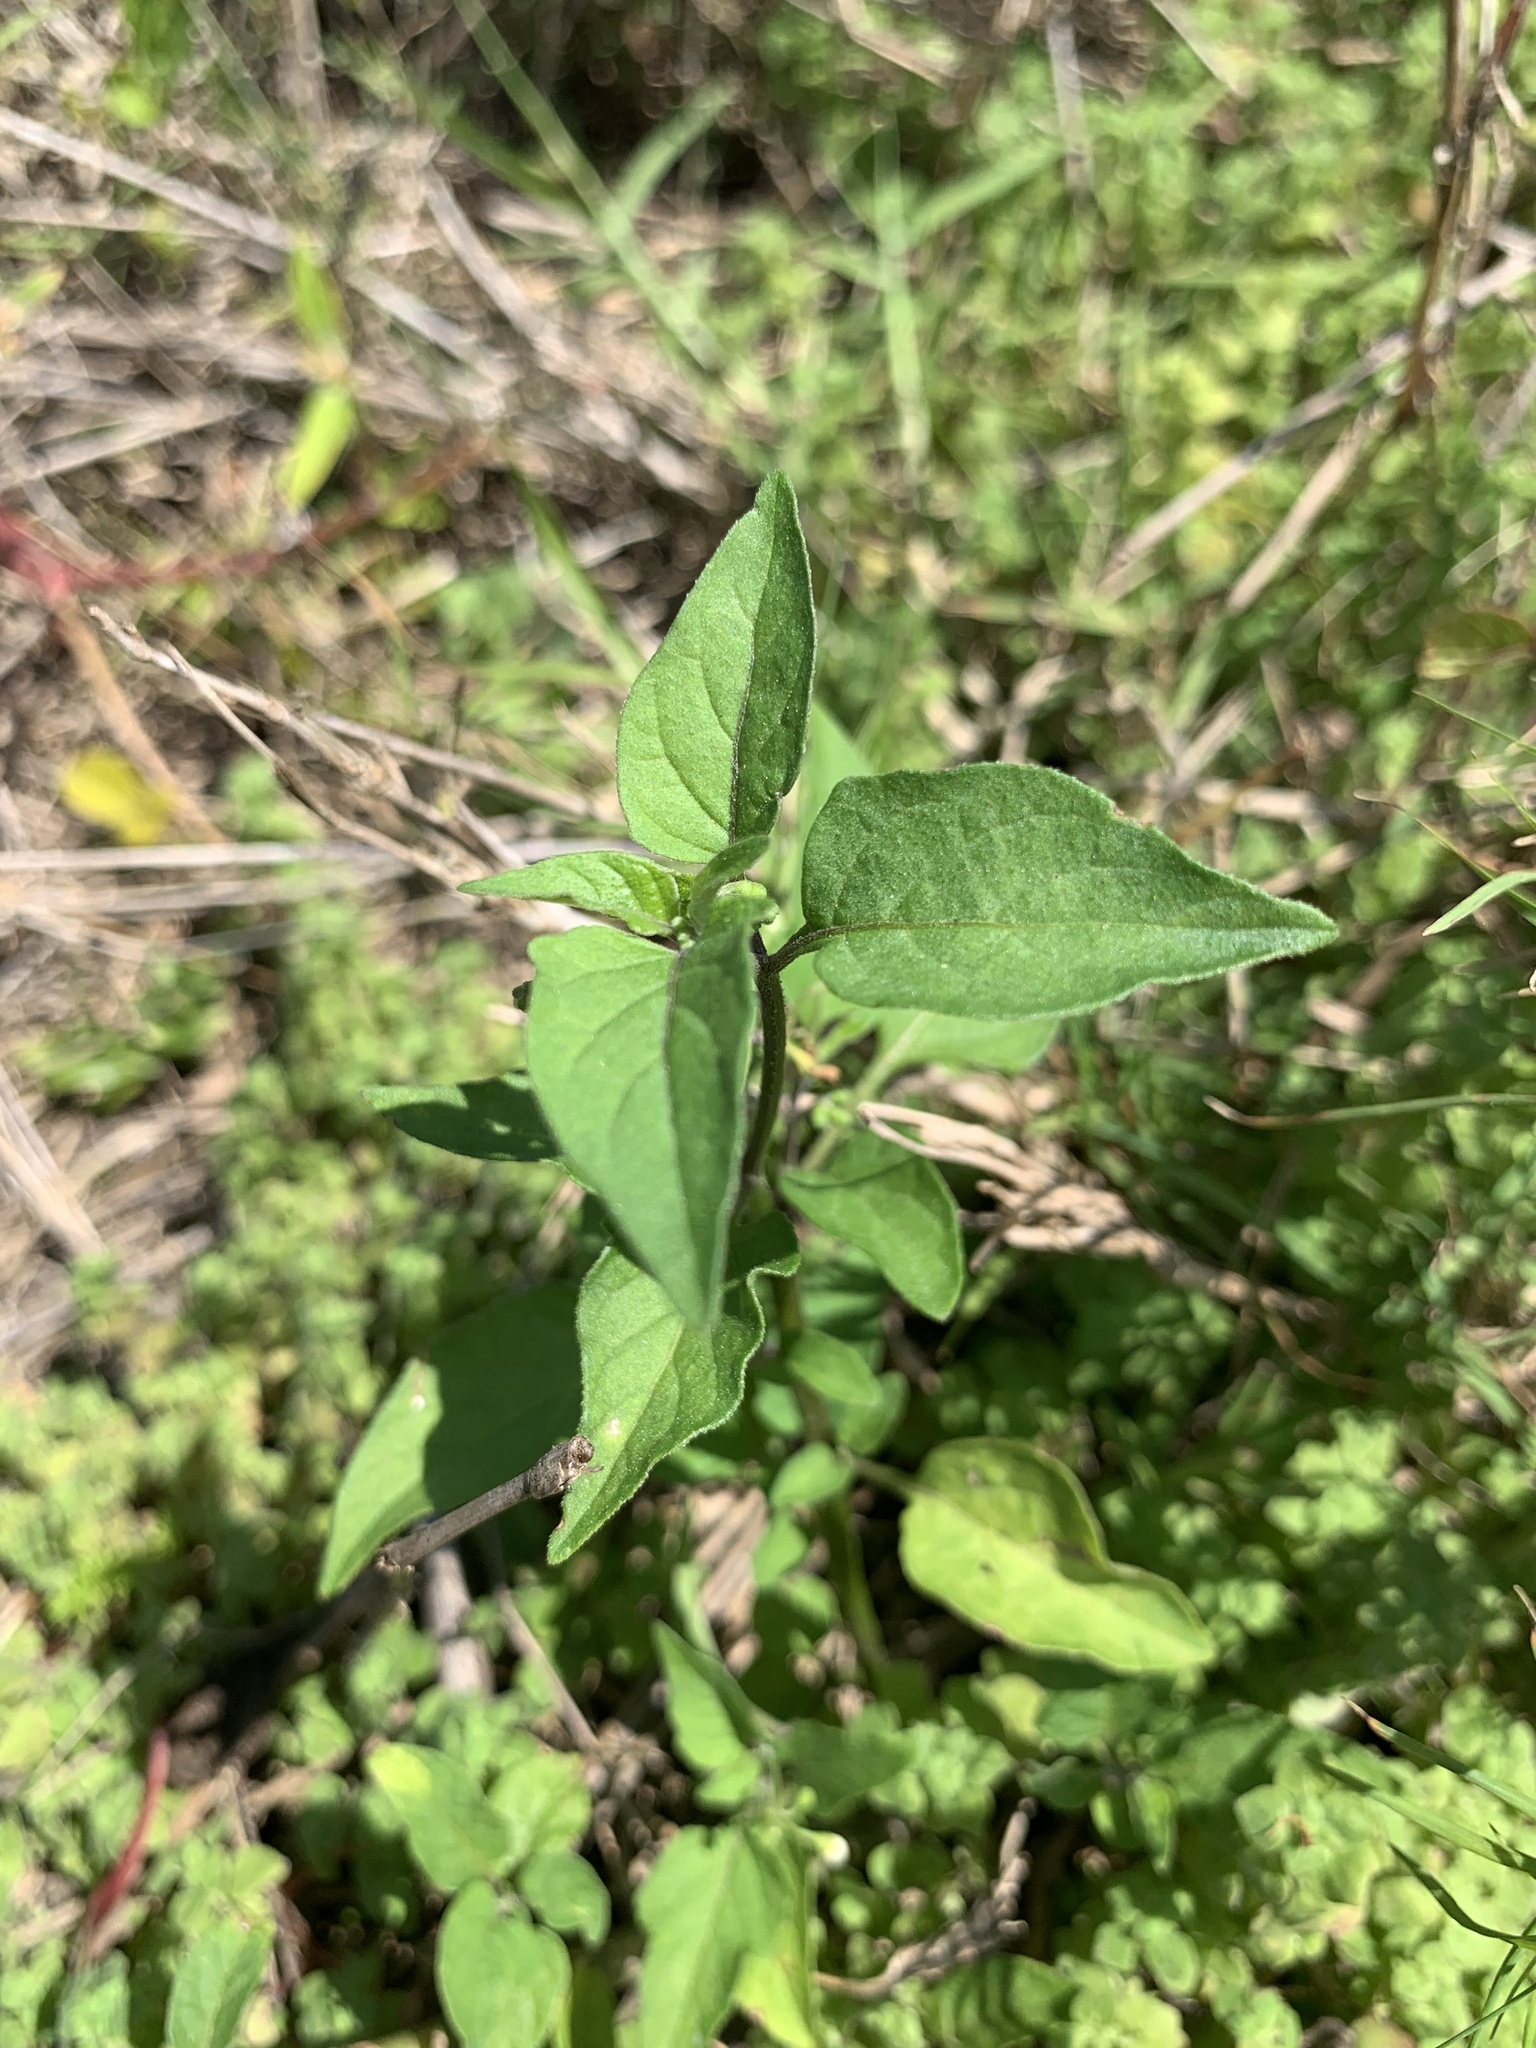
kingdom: Plantae
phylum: Tracheophyta
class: Magnoliopsida
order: Solanales
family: Solanaceae
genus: Solanum
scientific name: Solanum americanum
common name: American black nightshade
